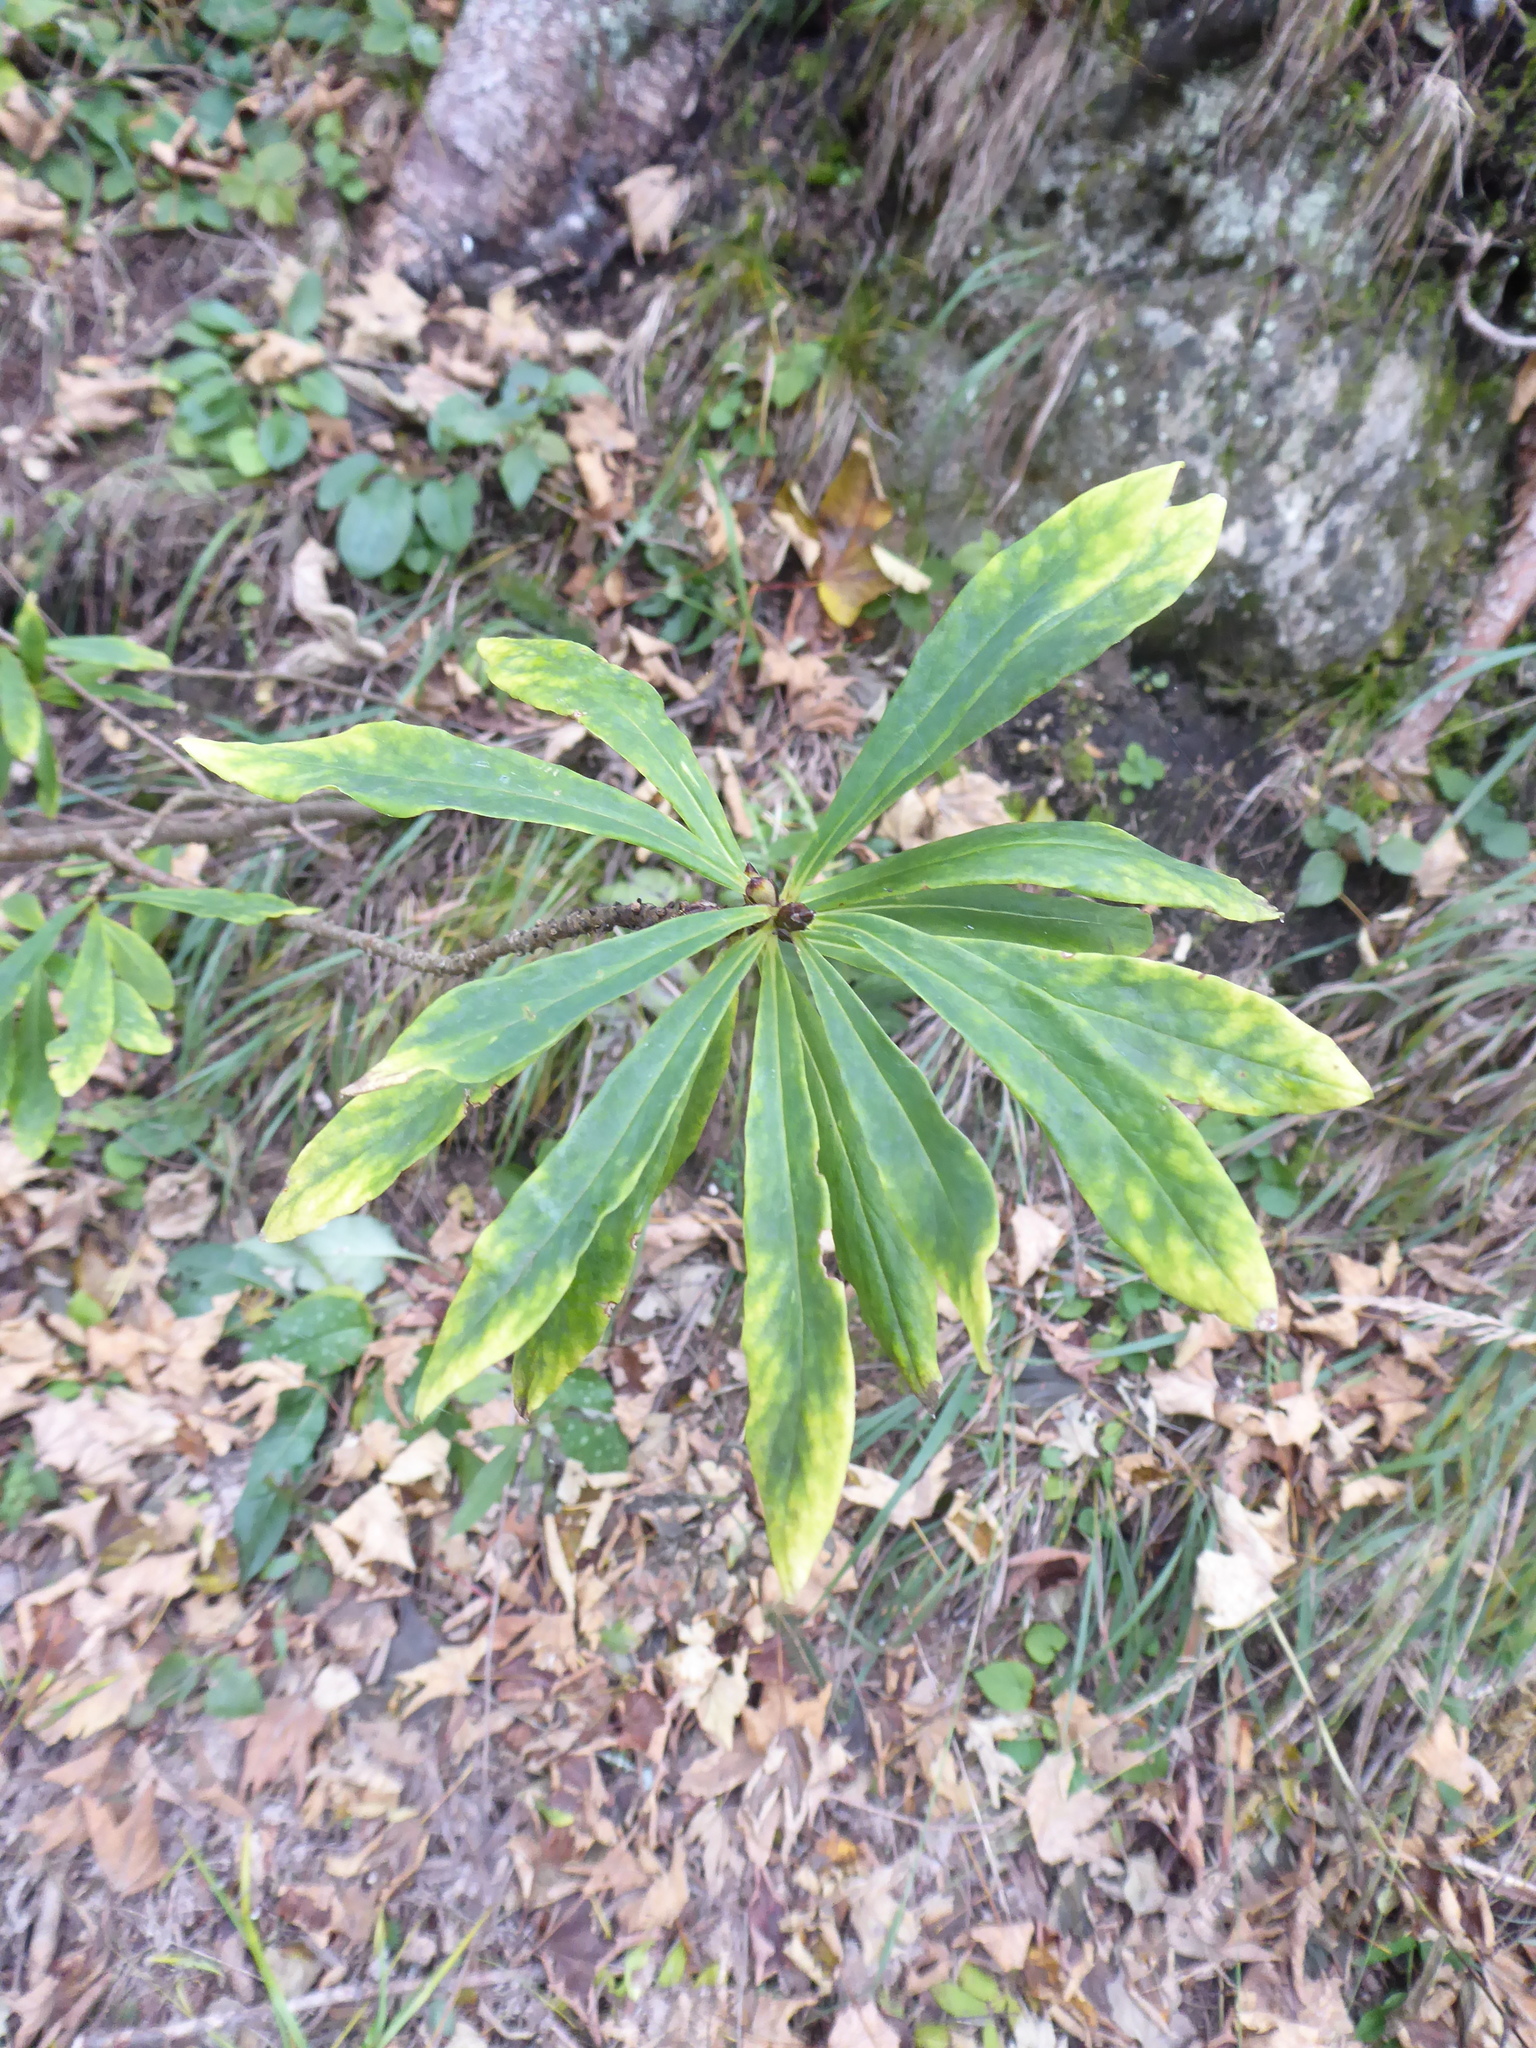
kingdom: Plantae
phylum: Tracheophyta
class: Magnoliopsida
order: Malvales
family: Thymelaeaceae
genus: Daphne
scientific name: Daphne mezereum
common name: Mezereon
